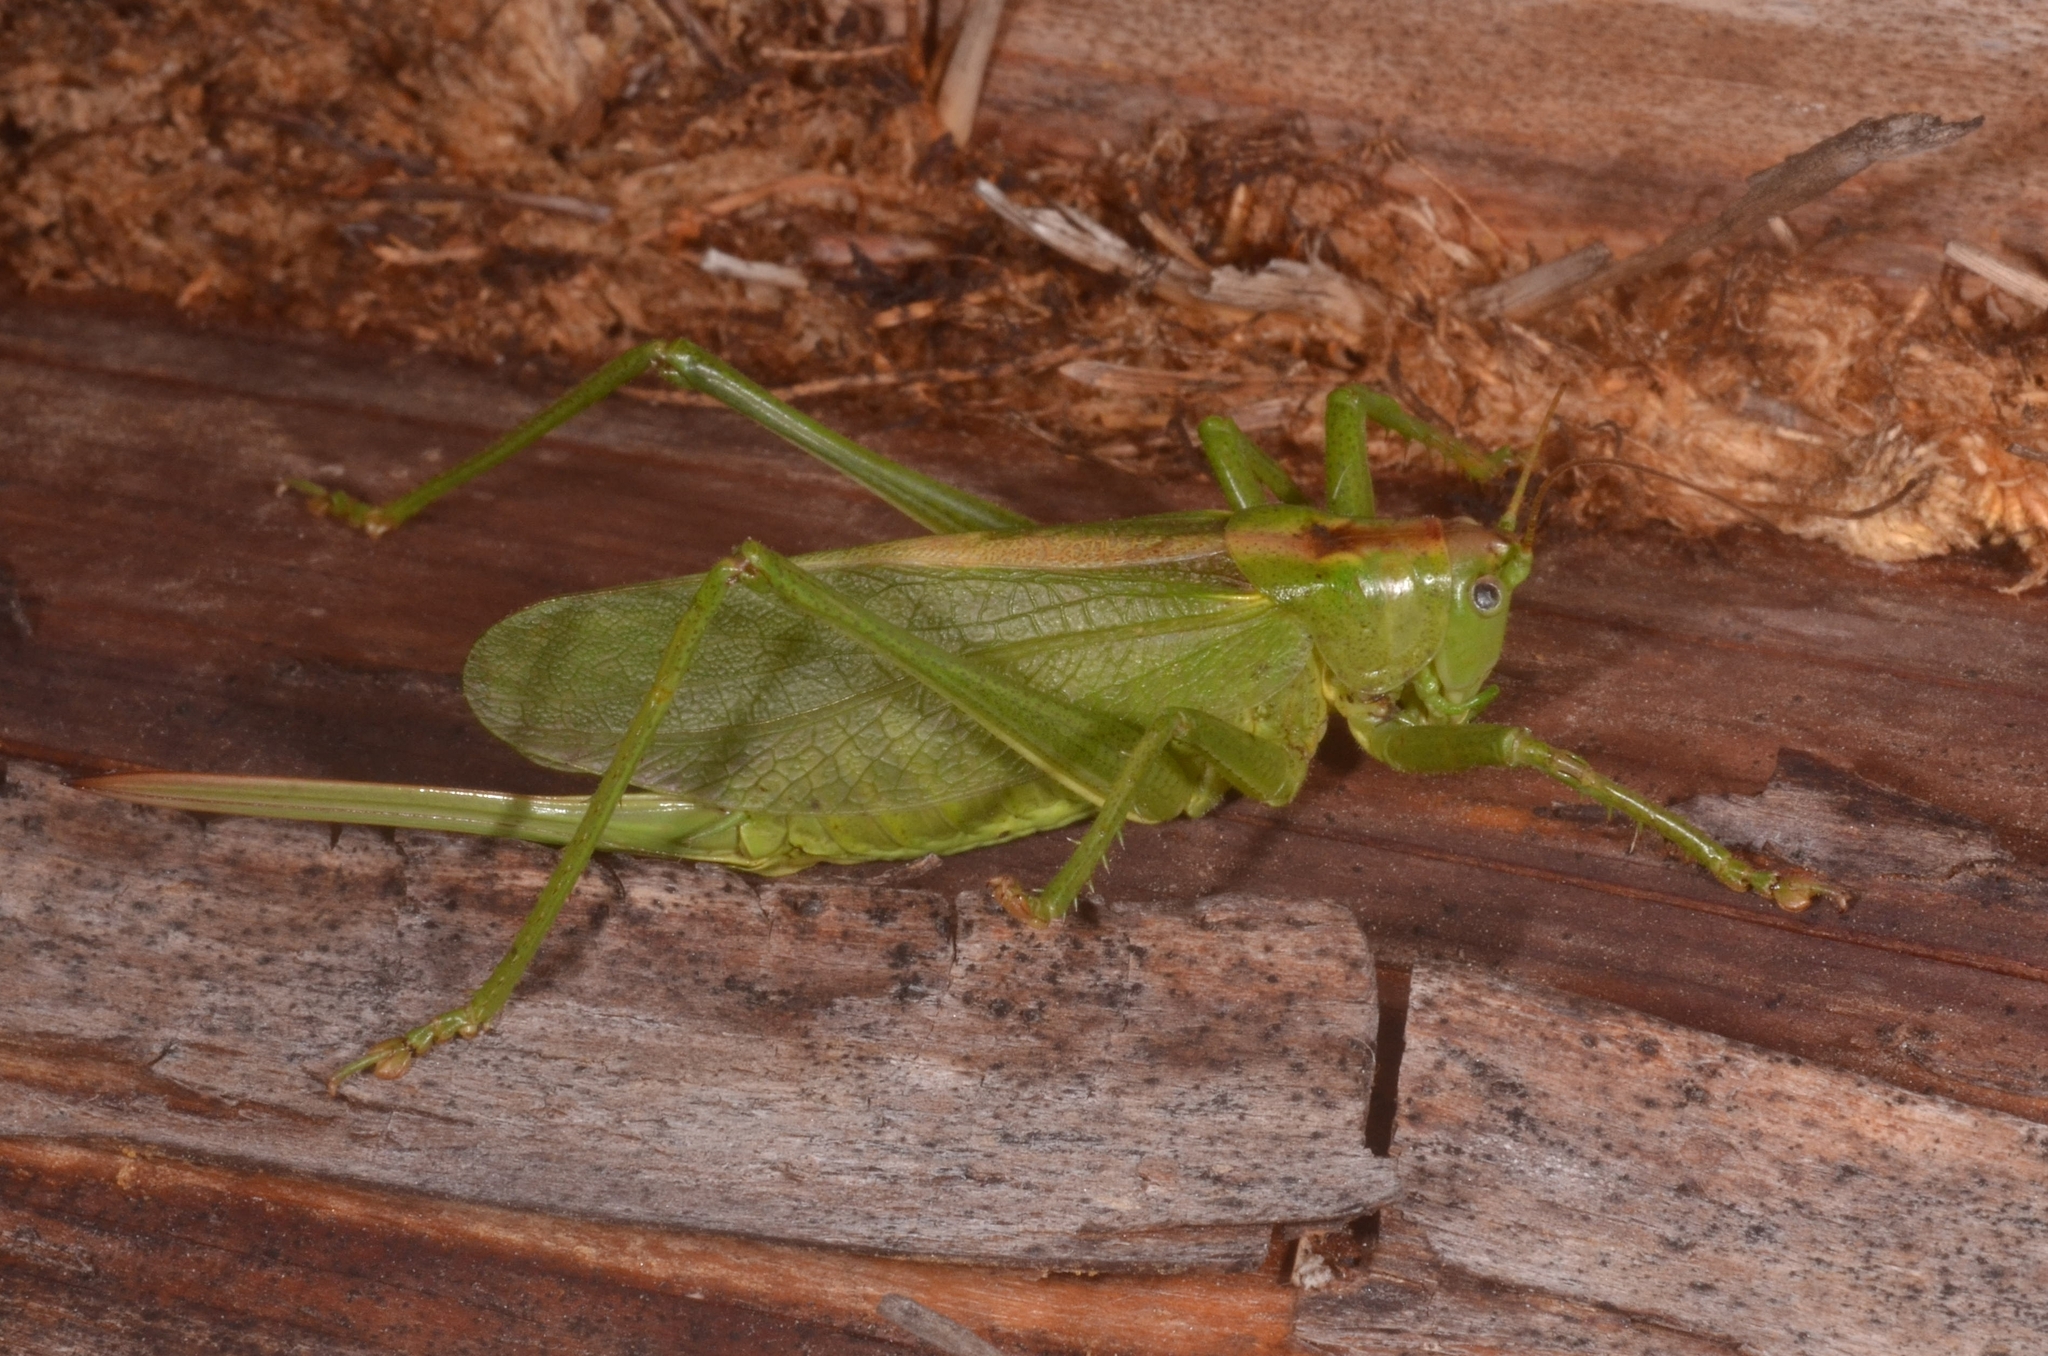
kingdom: Animalia
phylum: Arthropoda
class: Insecta
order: Orthoptera
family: Tettigoniidae
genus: Tettigonia
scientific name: Tettigonia cantans
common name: Upland green bush-cricket
